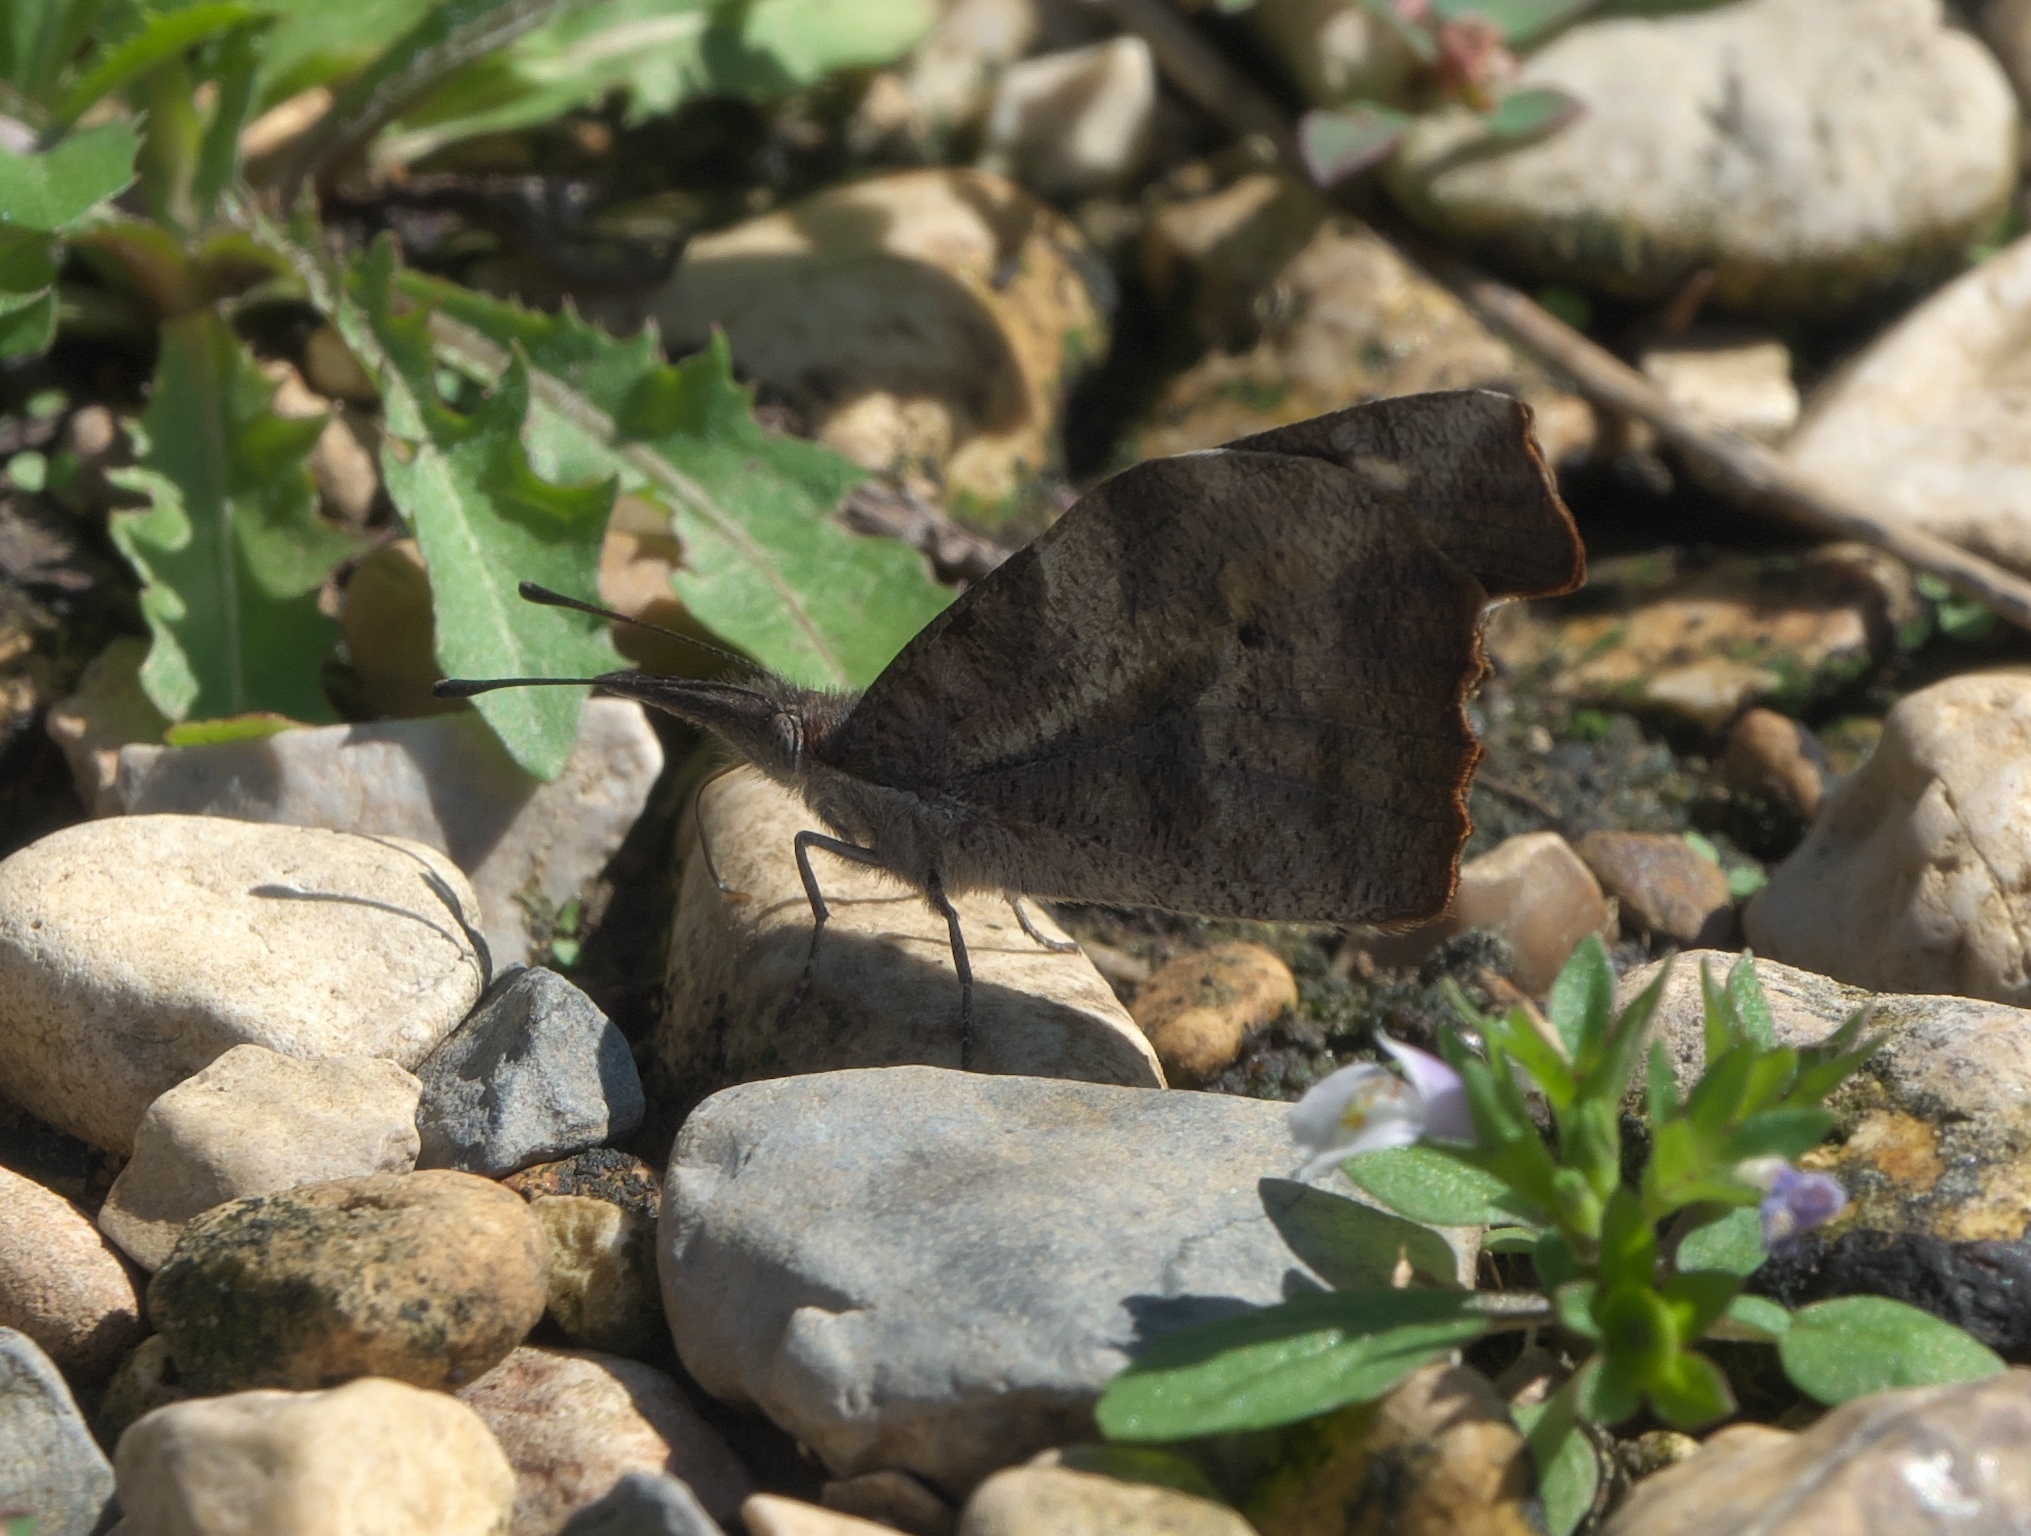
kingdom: Animalia
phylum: Arthropoda
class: Insecta
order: Lepidoptera
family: Nymphalidae
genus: Libytheana
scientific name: Libytheana carinenta
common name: American snout
